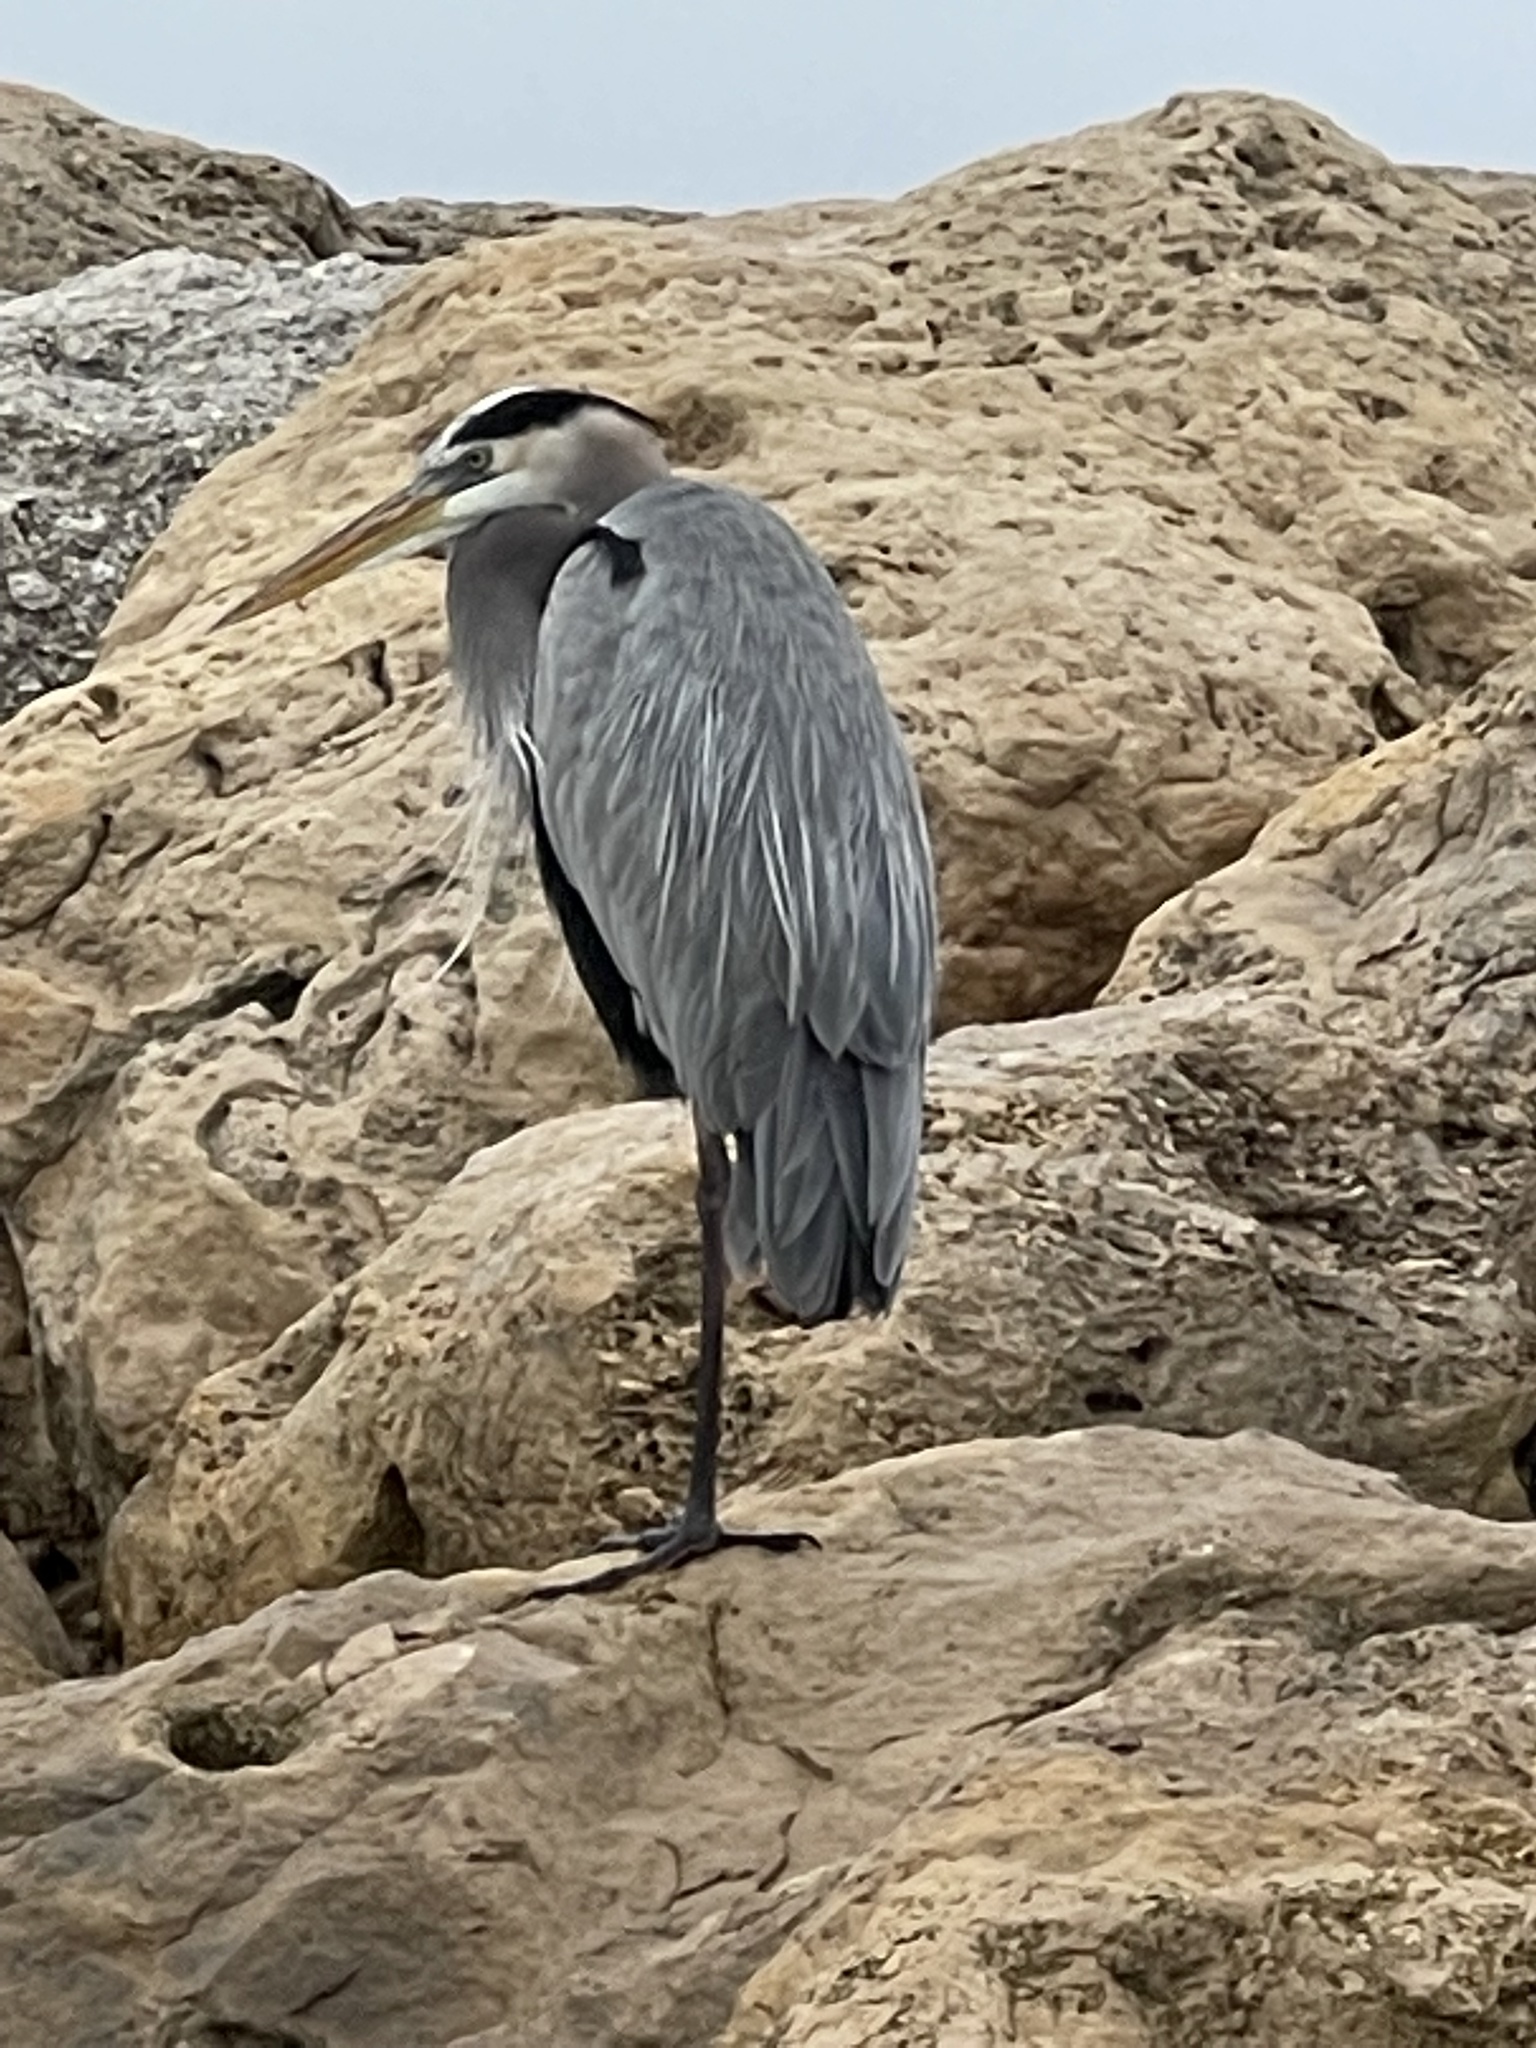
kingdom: Animalia
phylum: Chordata
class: Aves
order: Pelecaniformes
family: Ardeidae
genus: Ardea
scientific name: Ardea herodias
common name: Great blue heron
